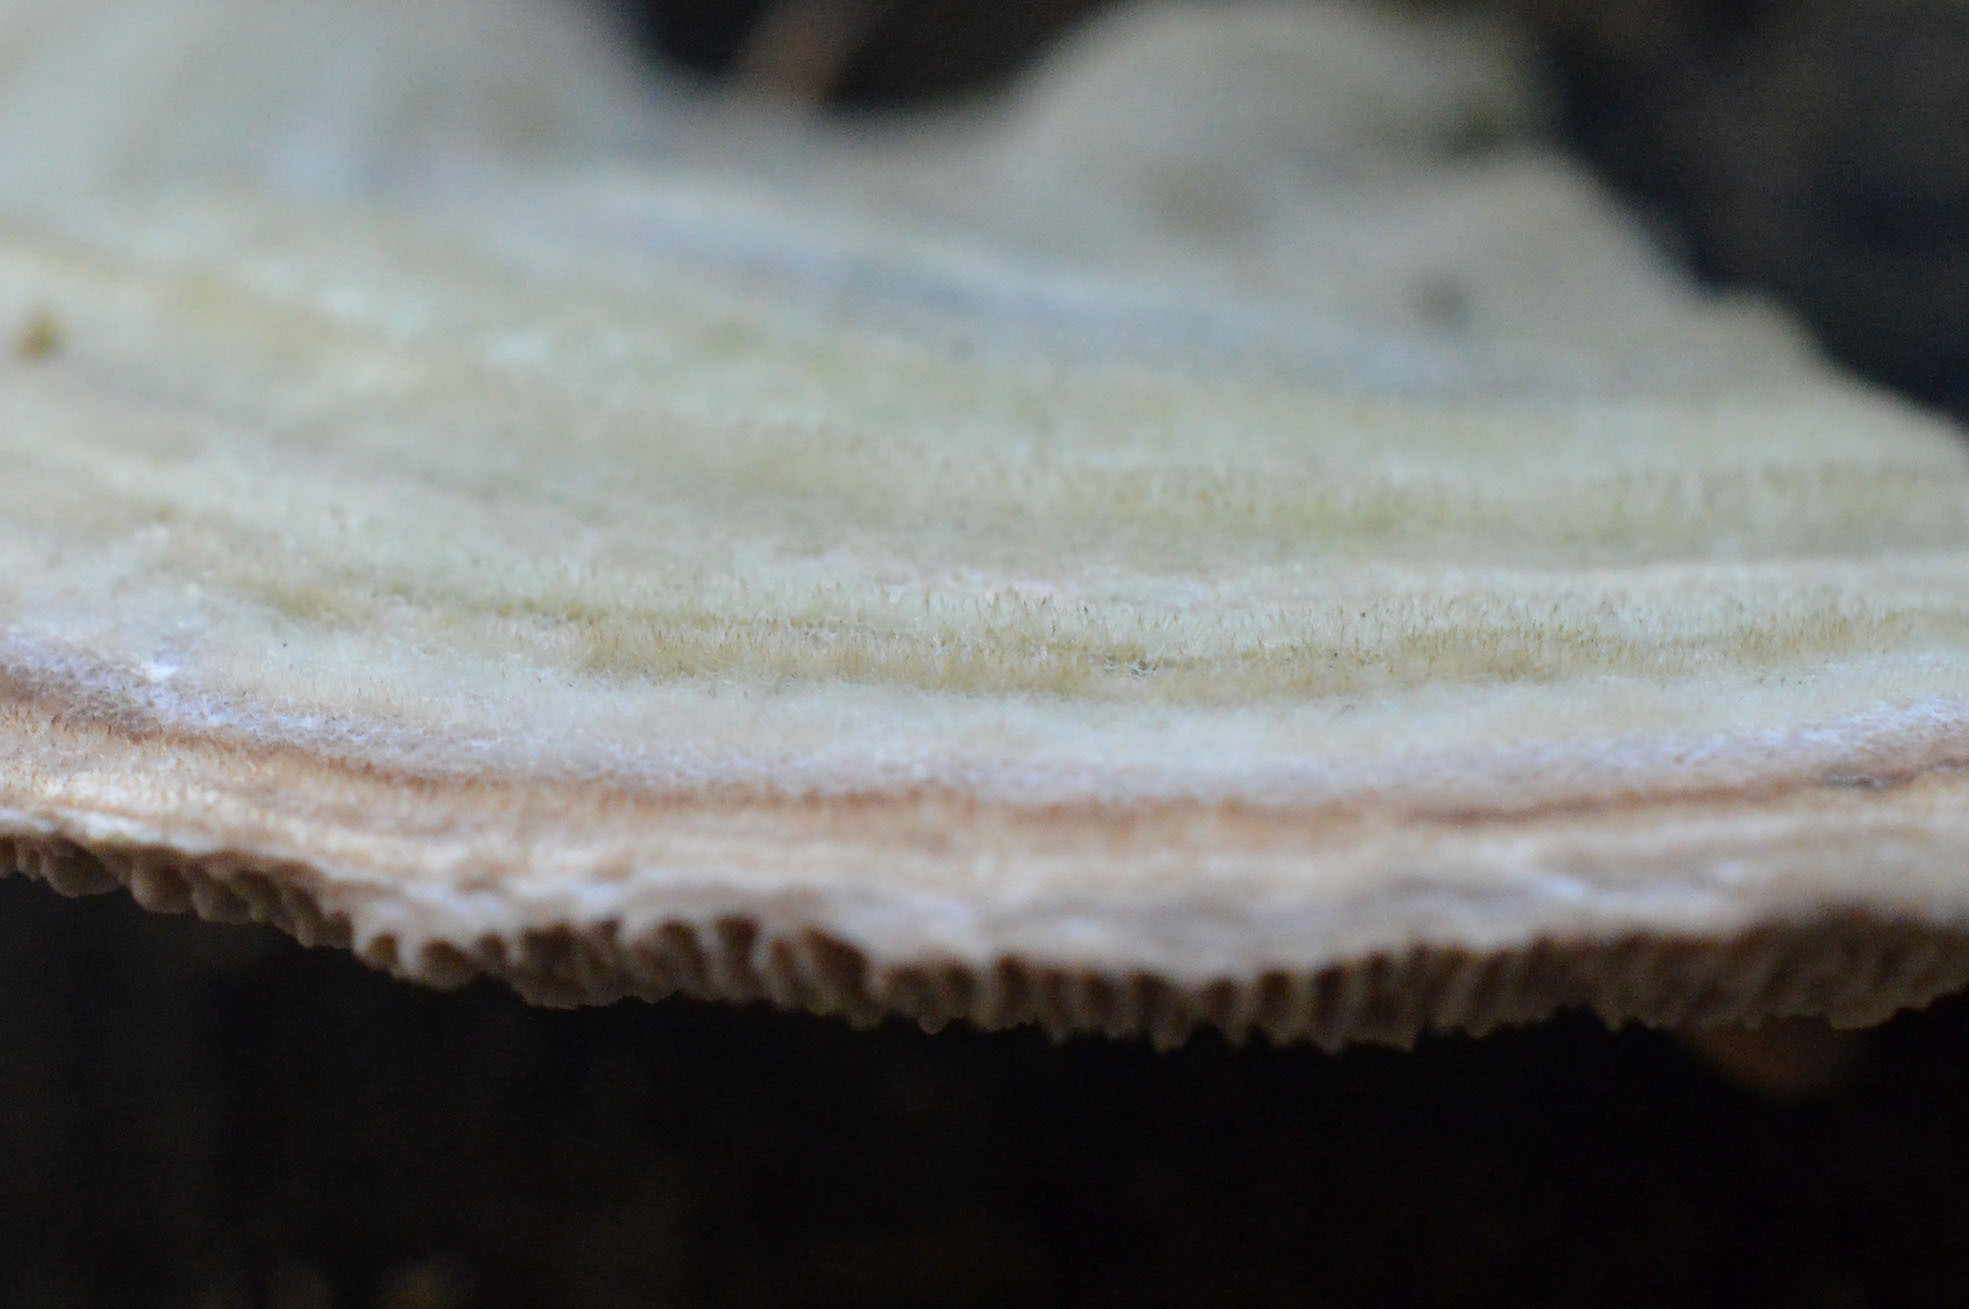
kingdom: Fungi
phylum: Basidiomycota
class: Agaricomycetes
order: Polyporales
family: Polyporaceae
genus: Lenzites
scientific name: Lenzites betulinus
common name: Birch mazegill
